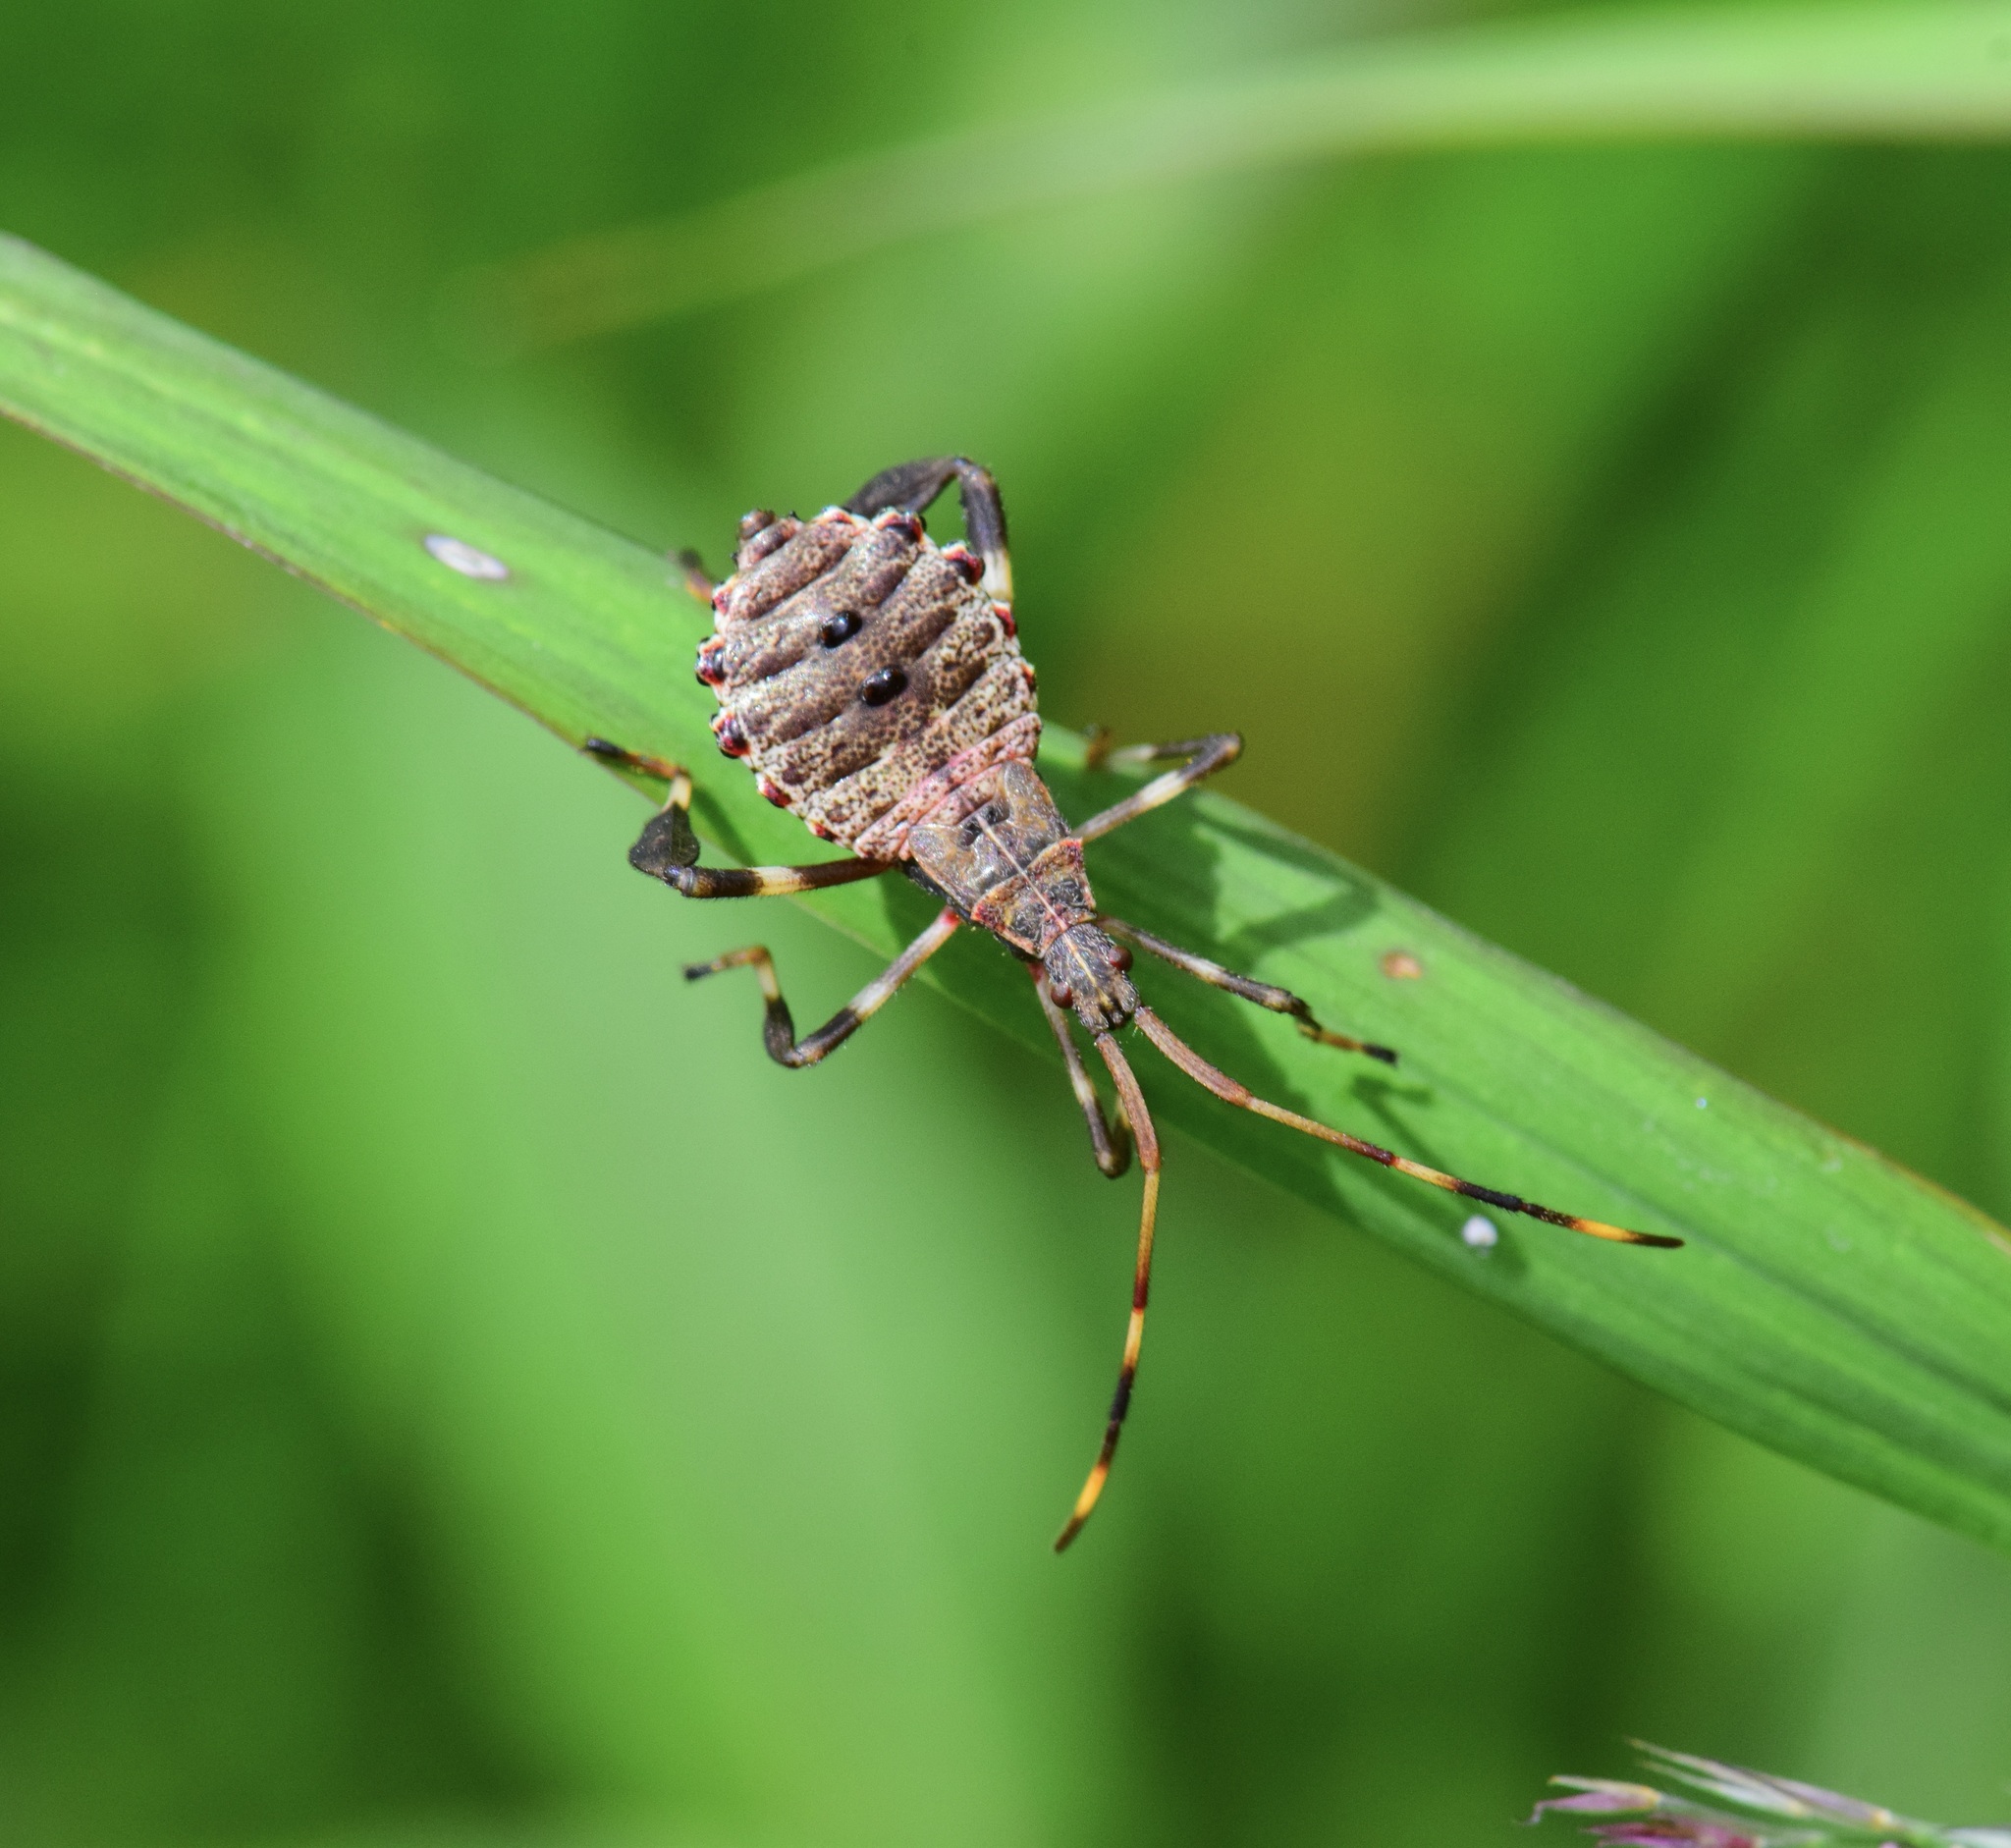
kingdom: Animalia
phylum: Arthropoda
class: Insecta
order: Hemiptera
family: Coreidae
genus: Acanthocephala
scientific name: Acanthocephala terminalis
